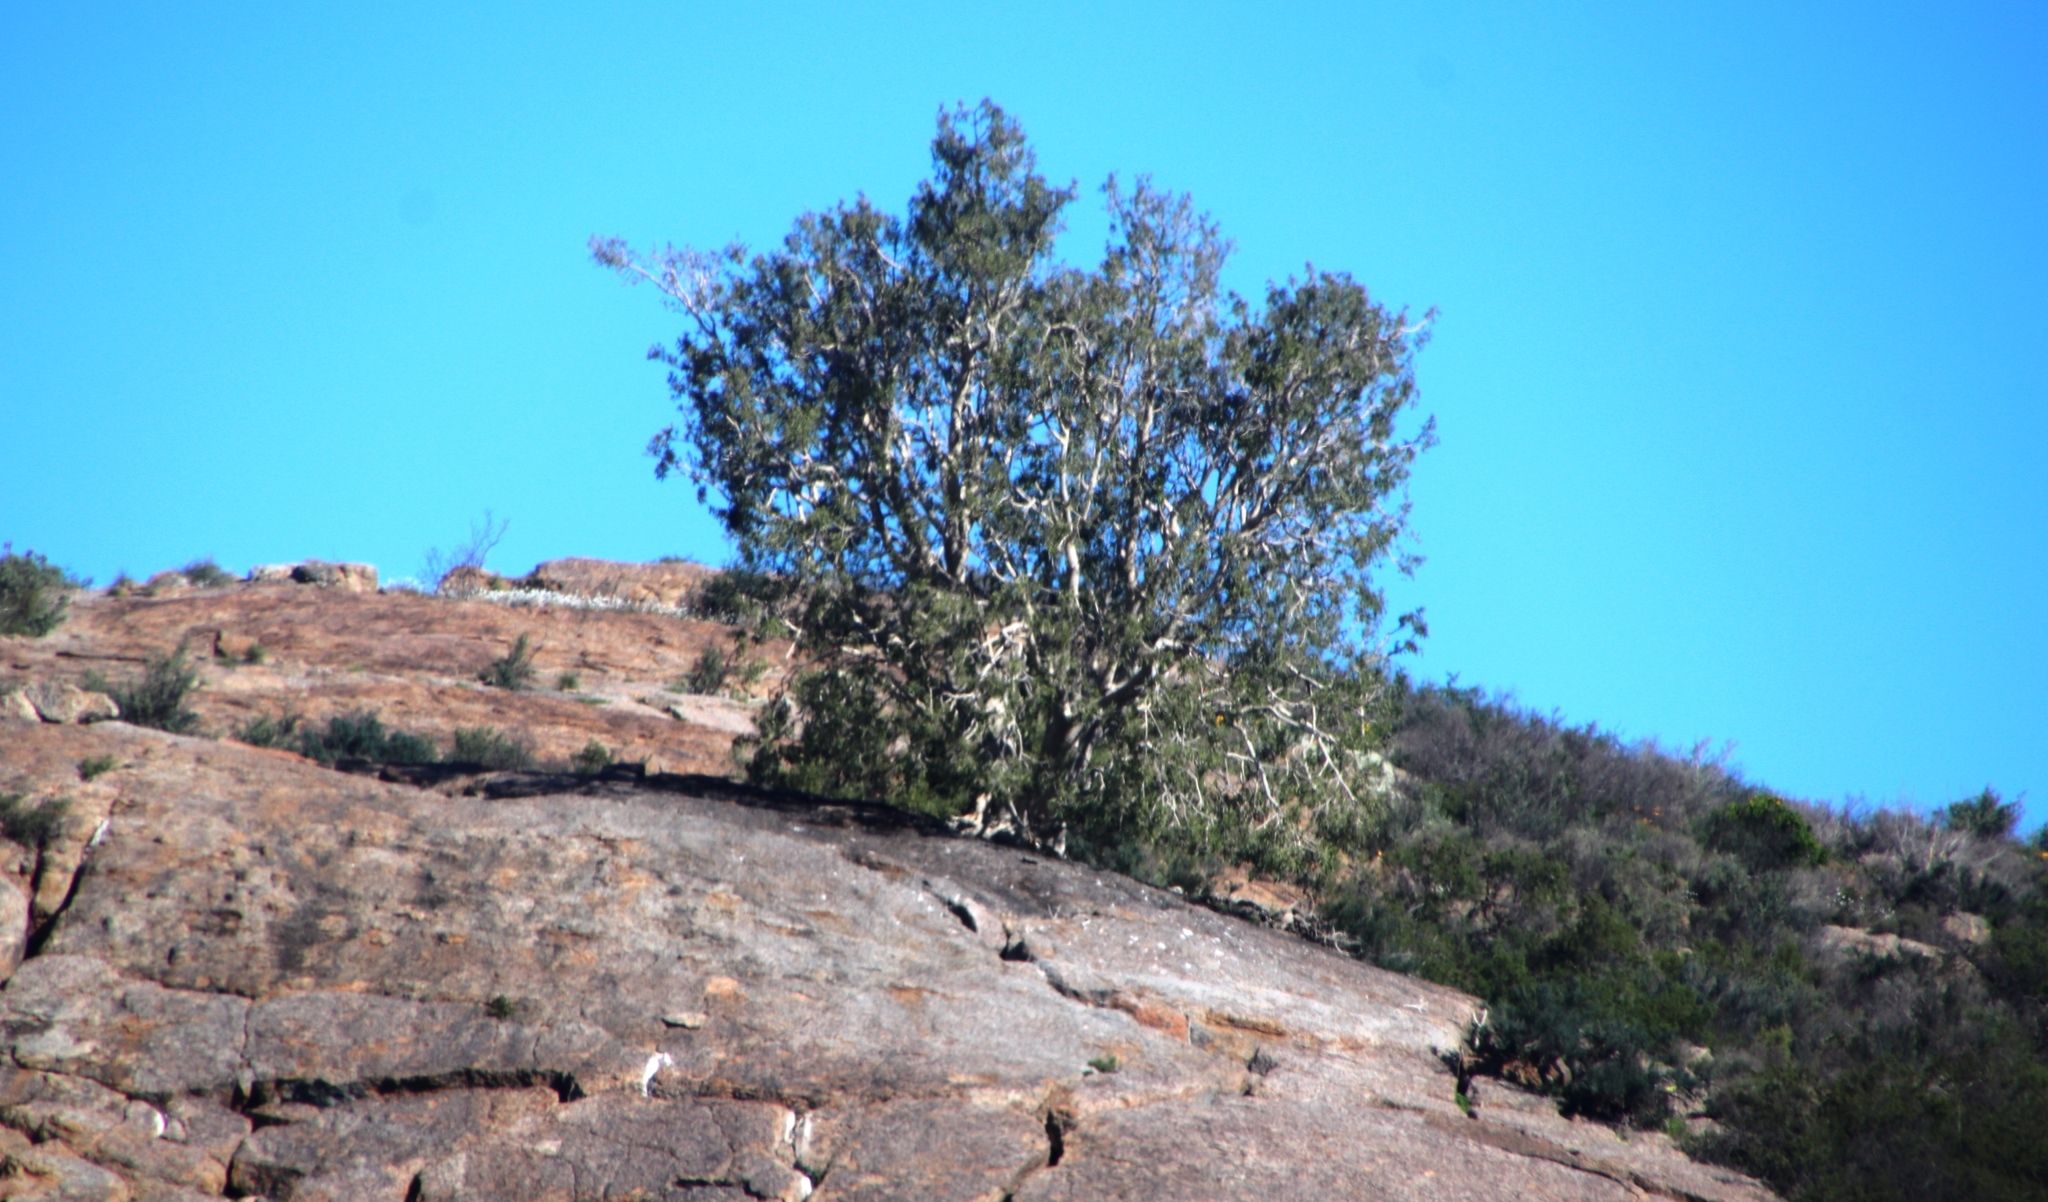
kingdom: Plantae
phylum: Tracheophyta
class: Magnoliopsida
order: Rosales
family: Moraceae
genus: Ficus
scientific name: Ficus cordata
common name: Namaqua rock fig
